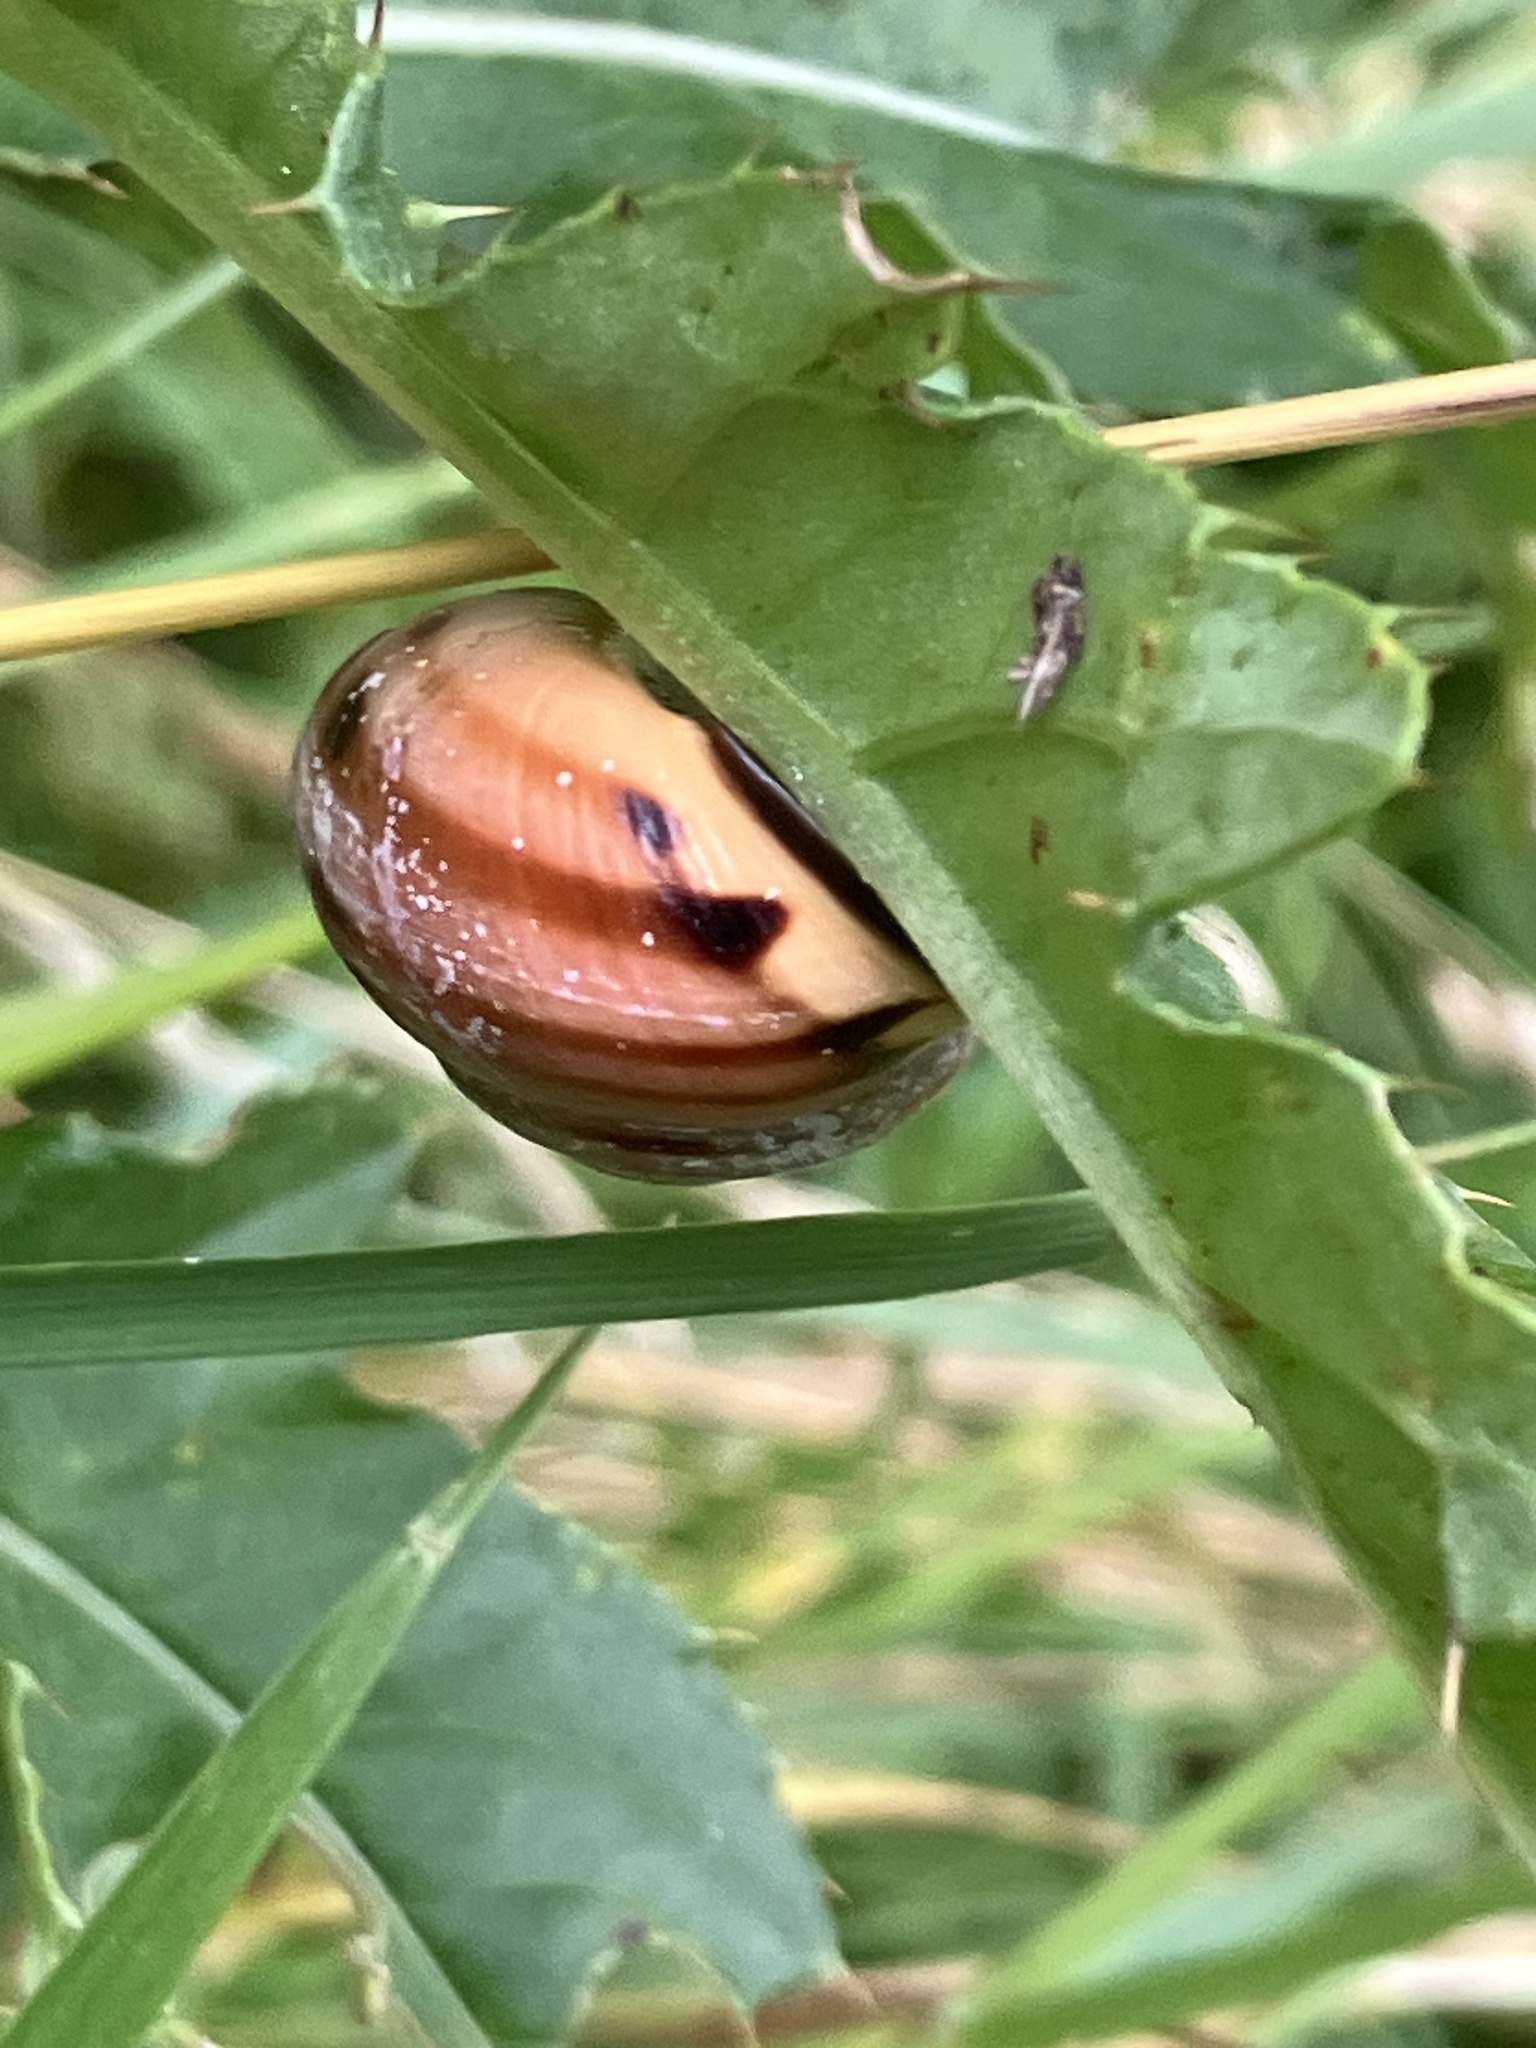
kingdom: Animalia
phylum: Mollusca
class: Gastropoda
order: Stylommatophora
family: Helicidae
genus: Cepaea
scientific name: Cepaea nemoralis
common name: Grovesnail
